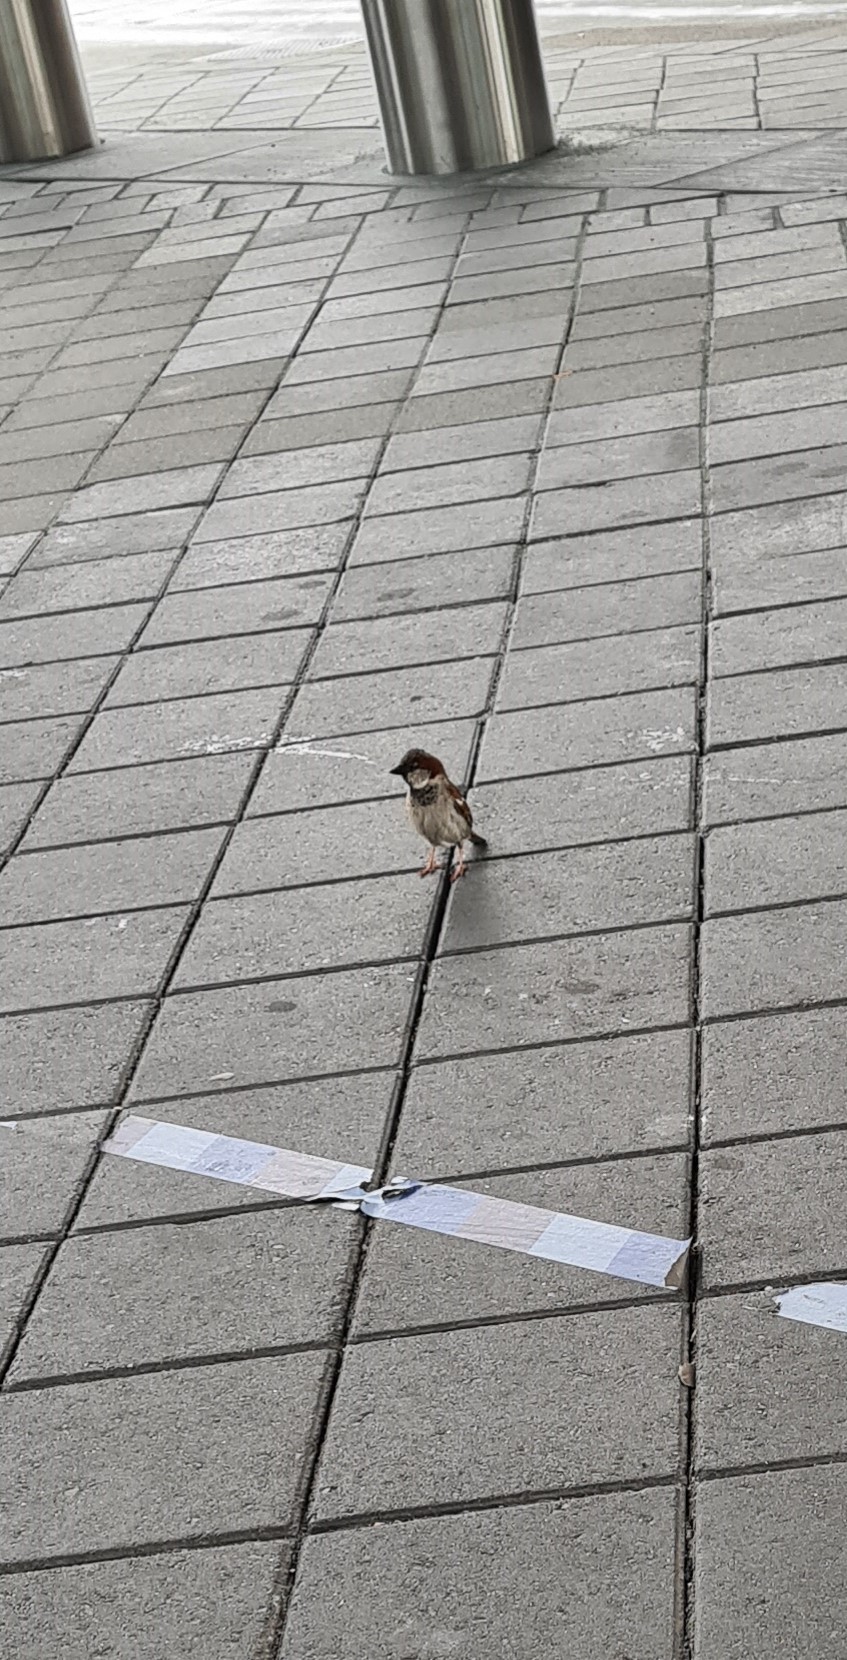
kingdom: Animalia
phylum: Chordata
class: Aves
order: Passeriformes
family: Passeridae
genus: Passer
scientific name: Passer domesticus
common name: House sparrow
